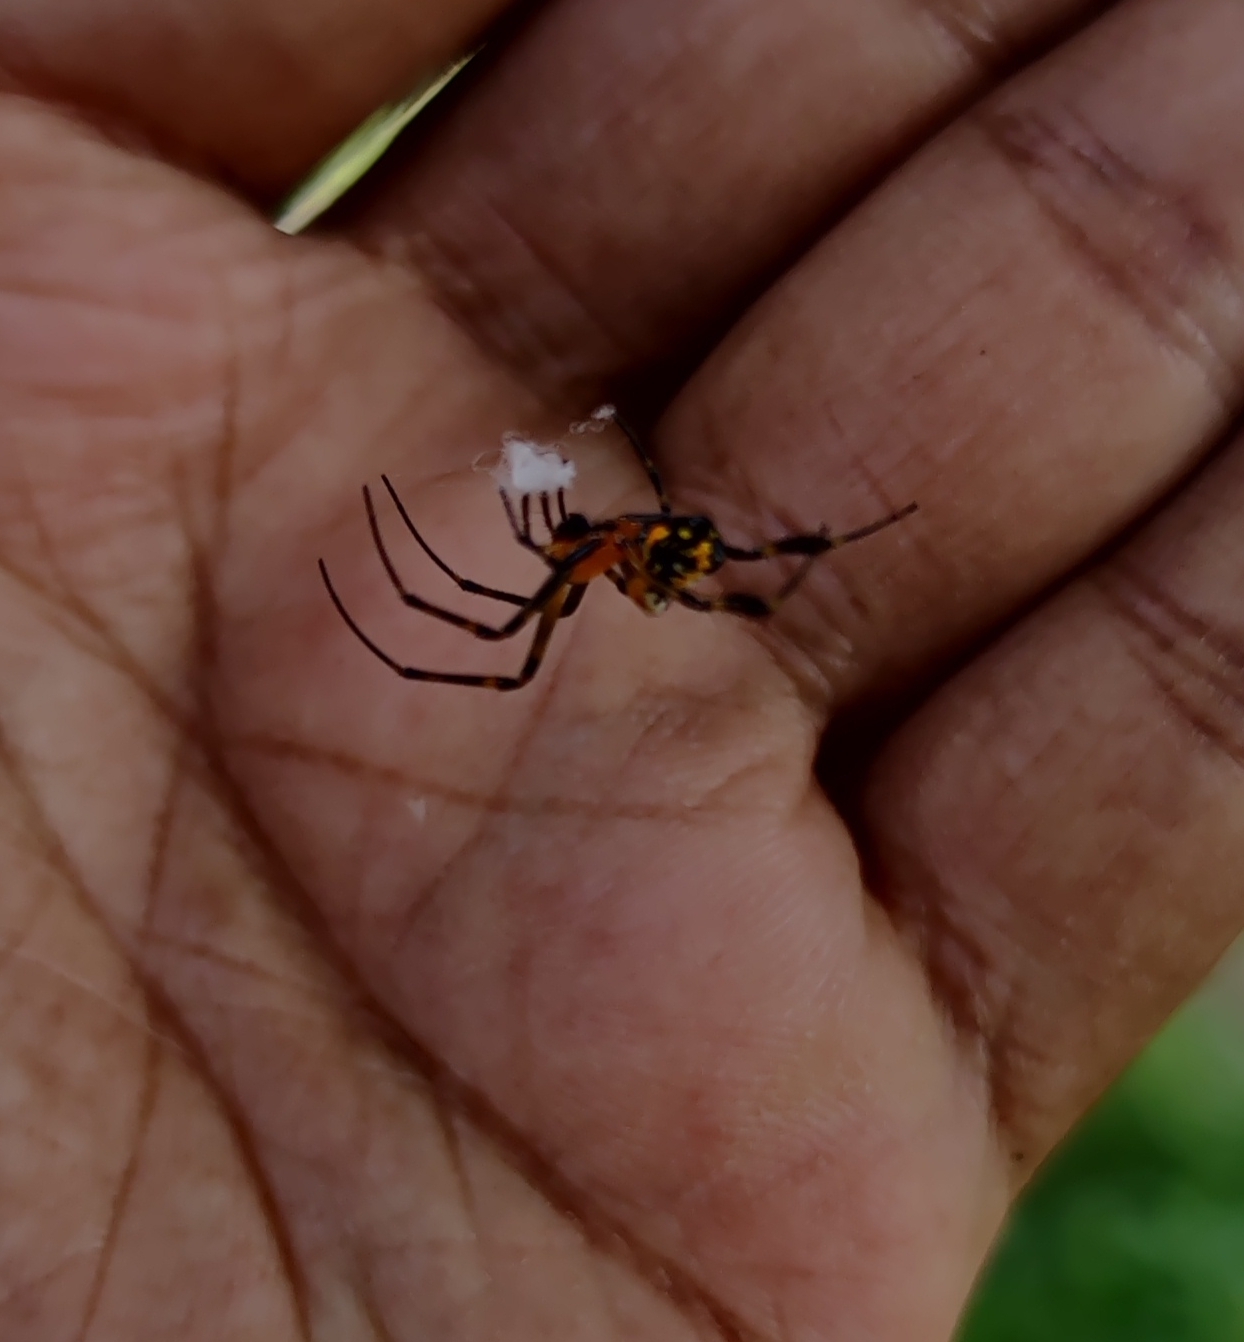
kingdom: Animalia
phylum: Arthropoda
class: Arachnida
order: Araneae
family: Tetragnathidae
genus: Leucauge
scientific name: Leucauge fastigata
